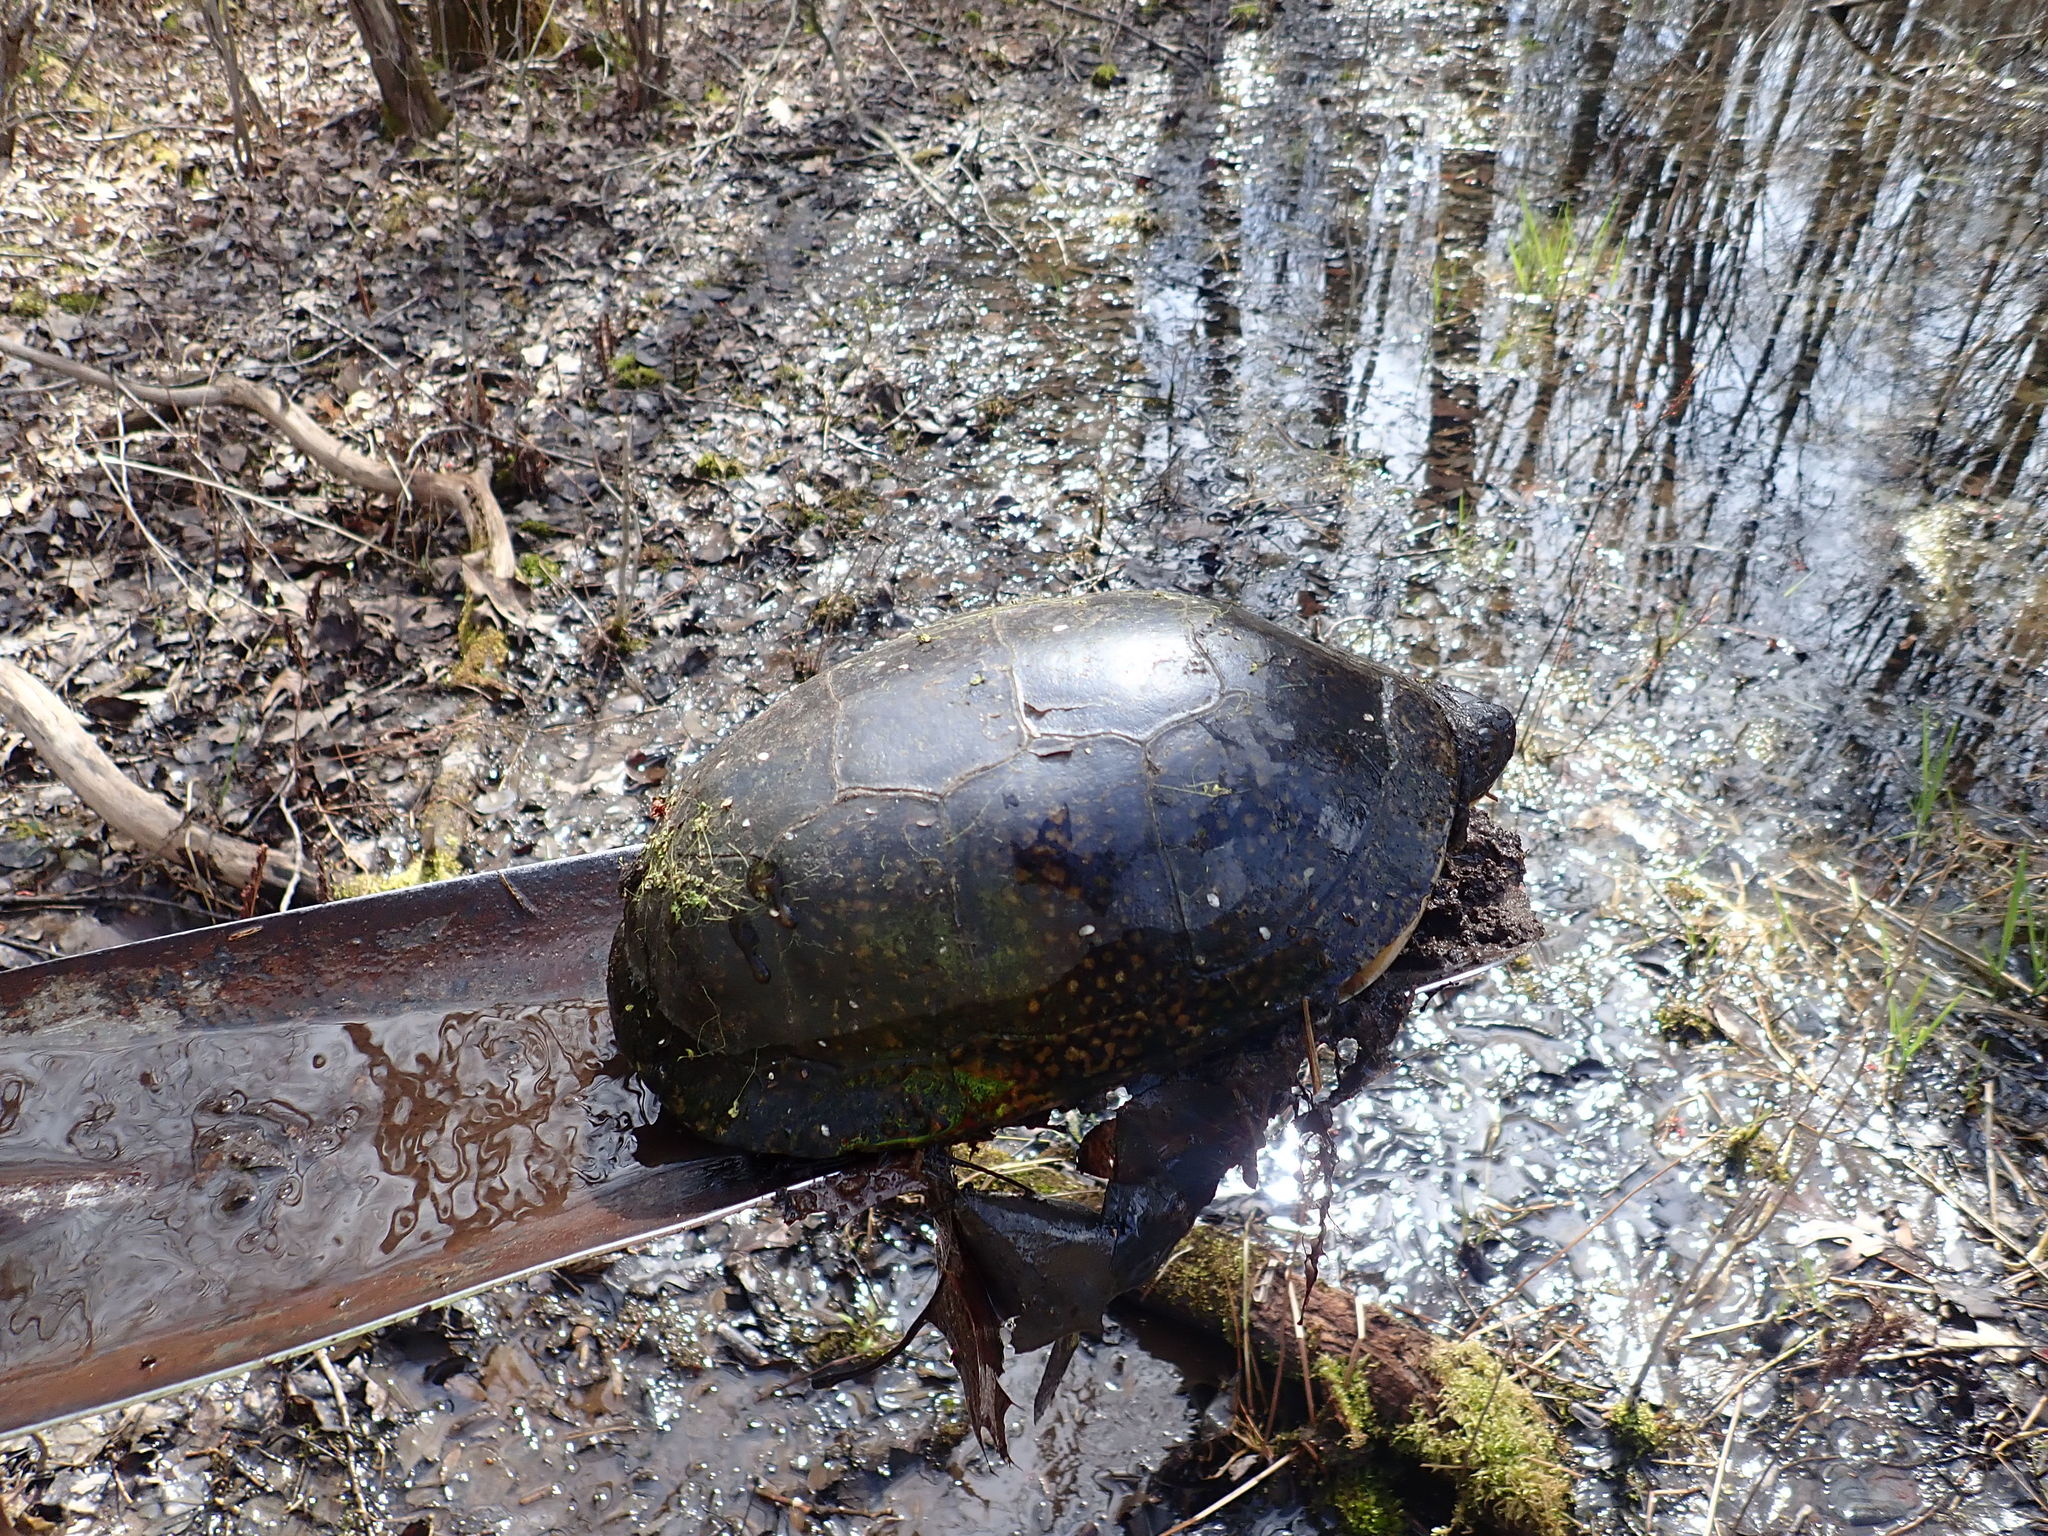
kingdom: Animalia
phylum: Chordata
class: Testudines
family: Emydidae
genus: Emys
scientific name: Emys blandingii
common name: Blanding's turtle
